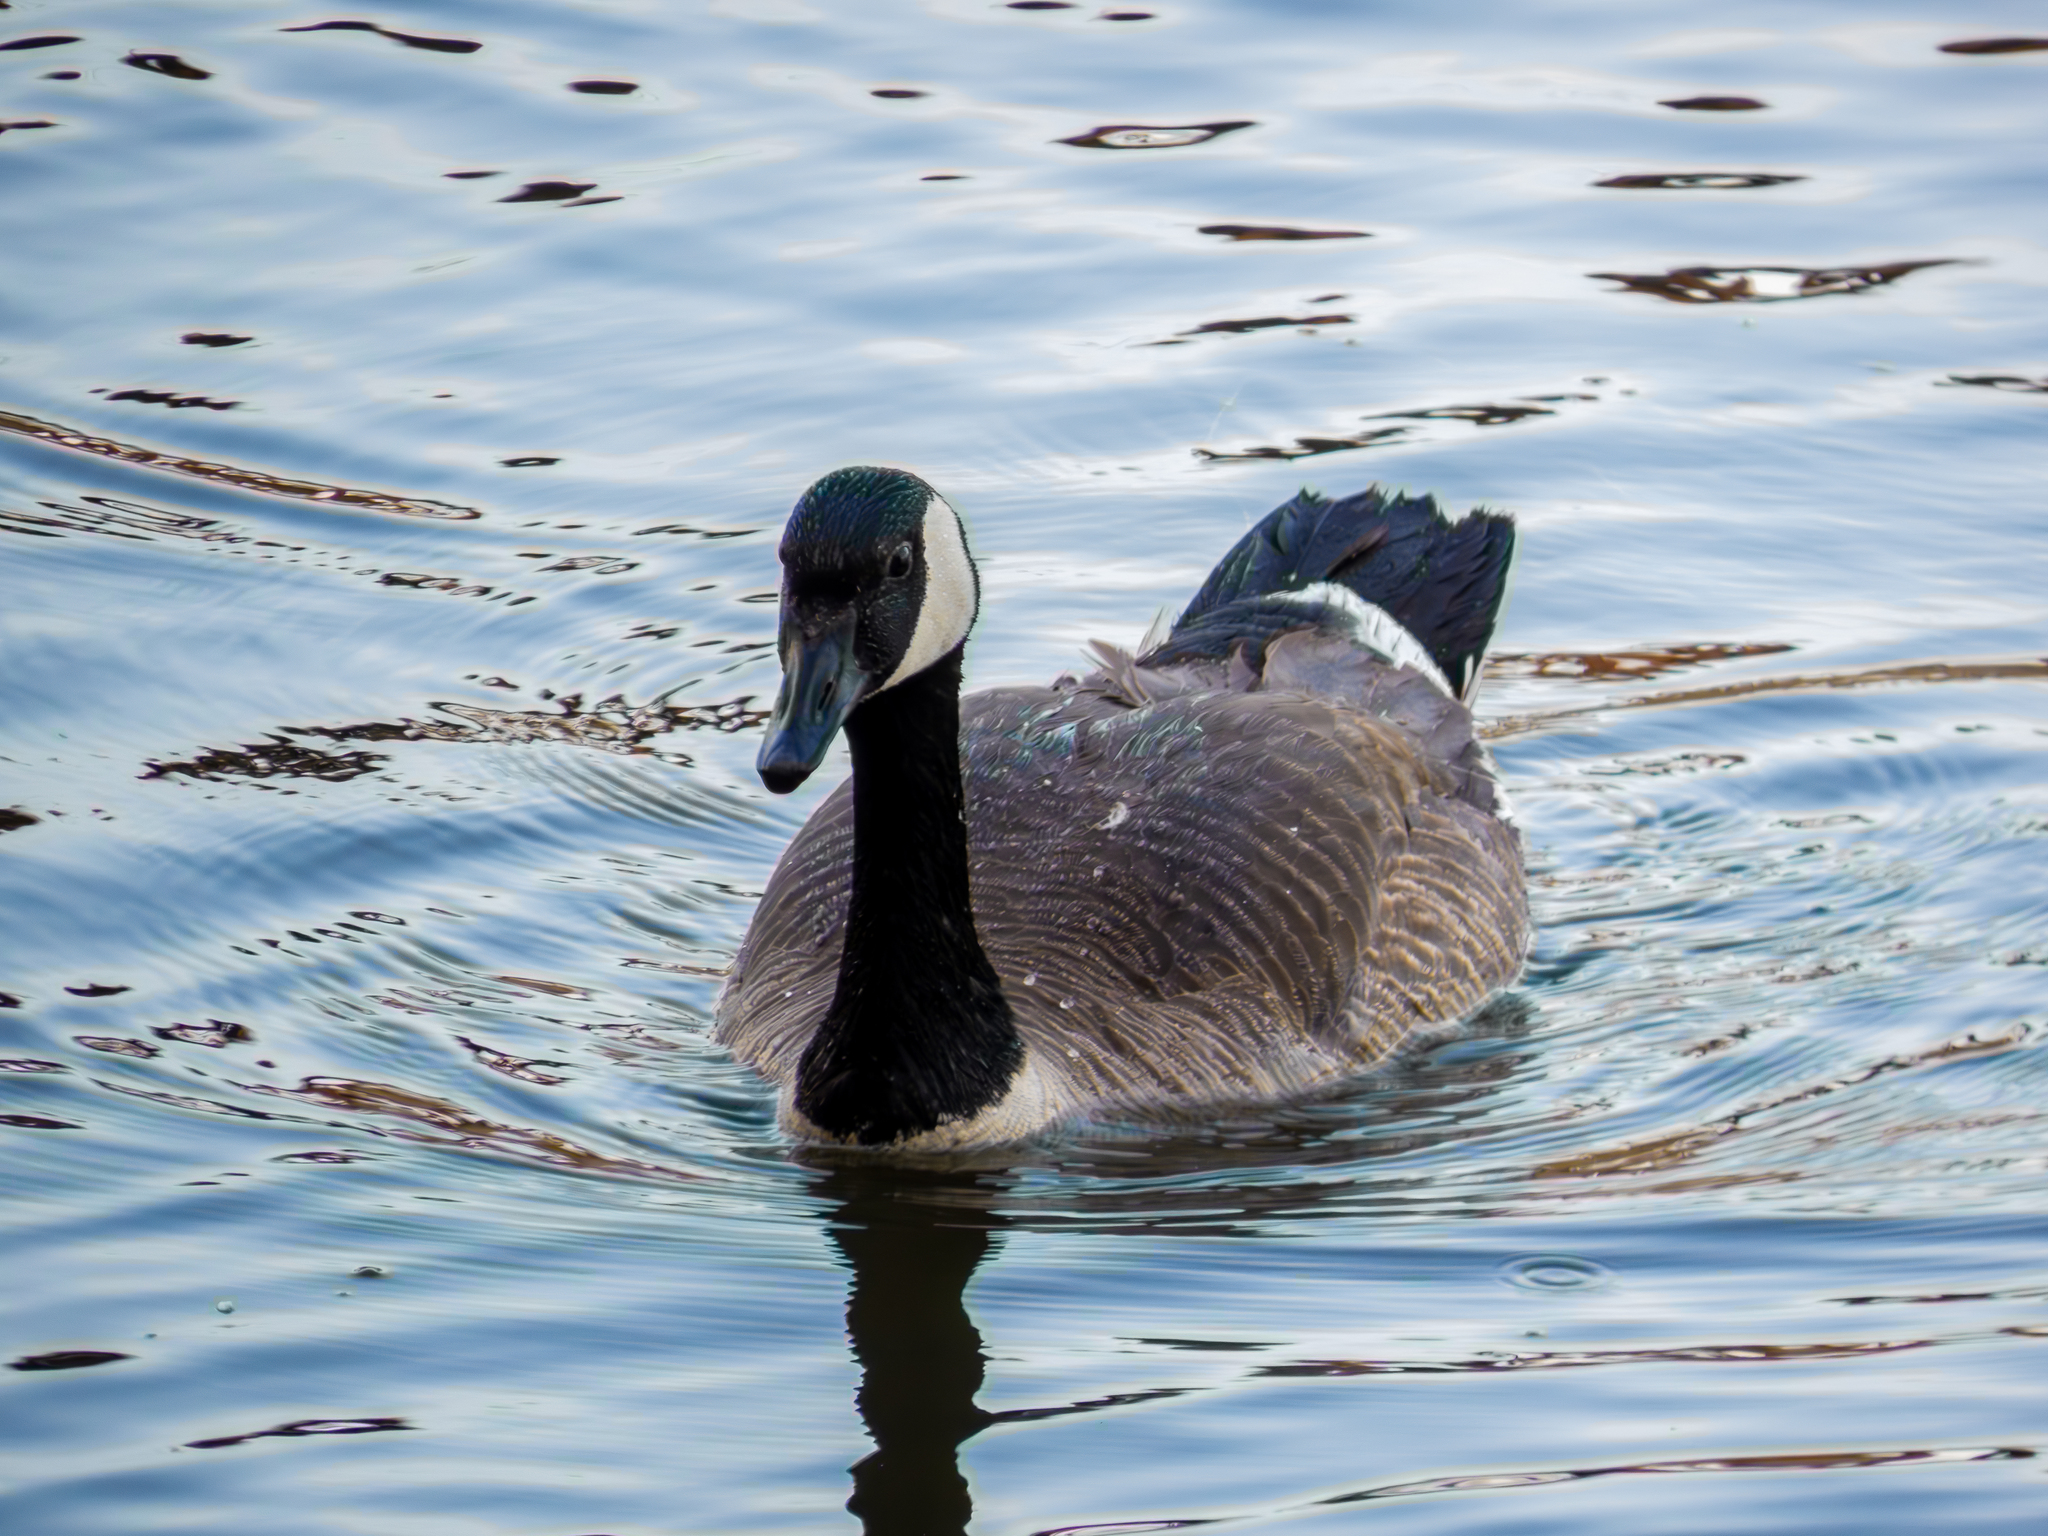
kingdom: Animalia
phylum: Chordata
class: Aves
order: Anseriformes
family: Anatidae
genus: Branta
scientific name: Branta canadensis
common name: Canada goose
